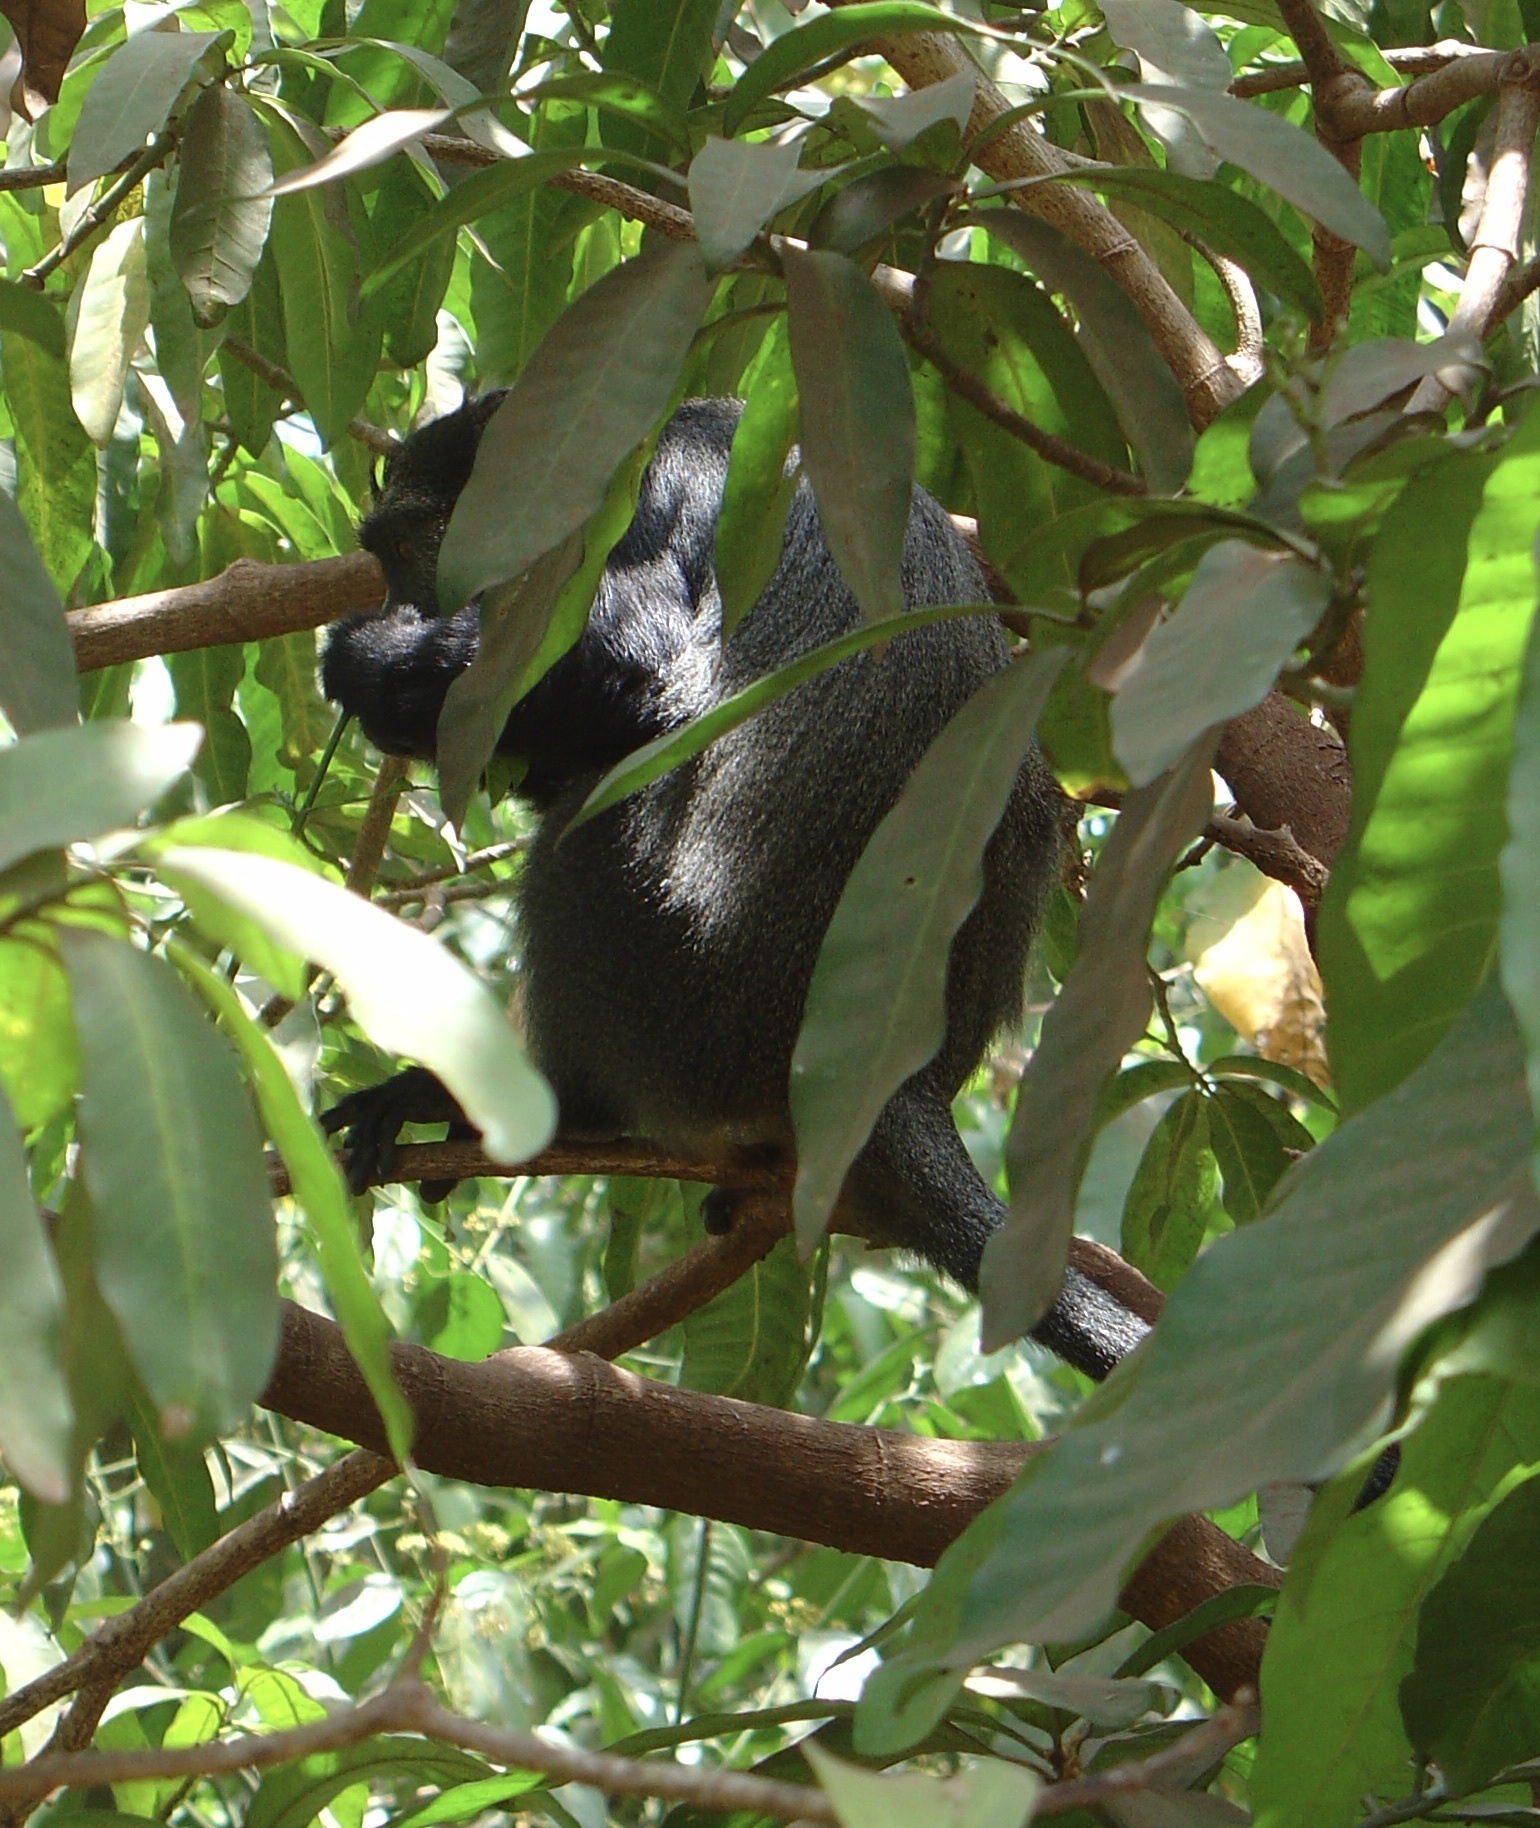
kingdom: Animalia
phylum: Chordata
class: Mammalia
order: Primates
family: Cercopithecidae
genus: Cercopithecus
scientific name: Cercopithecus mitis
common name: Blue monkey
